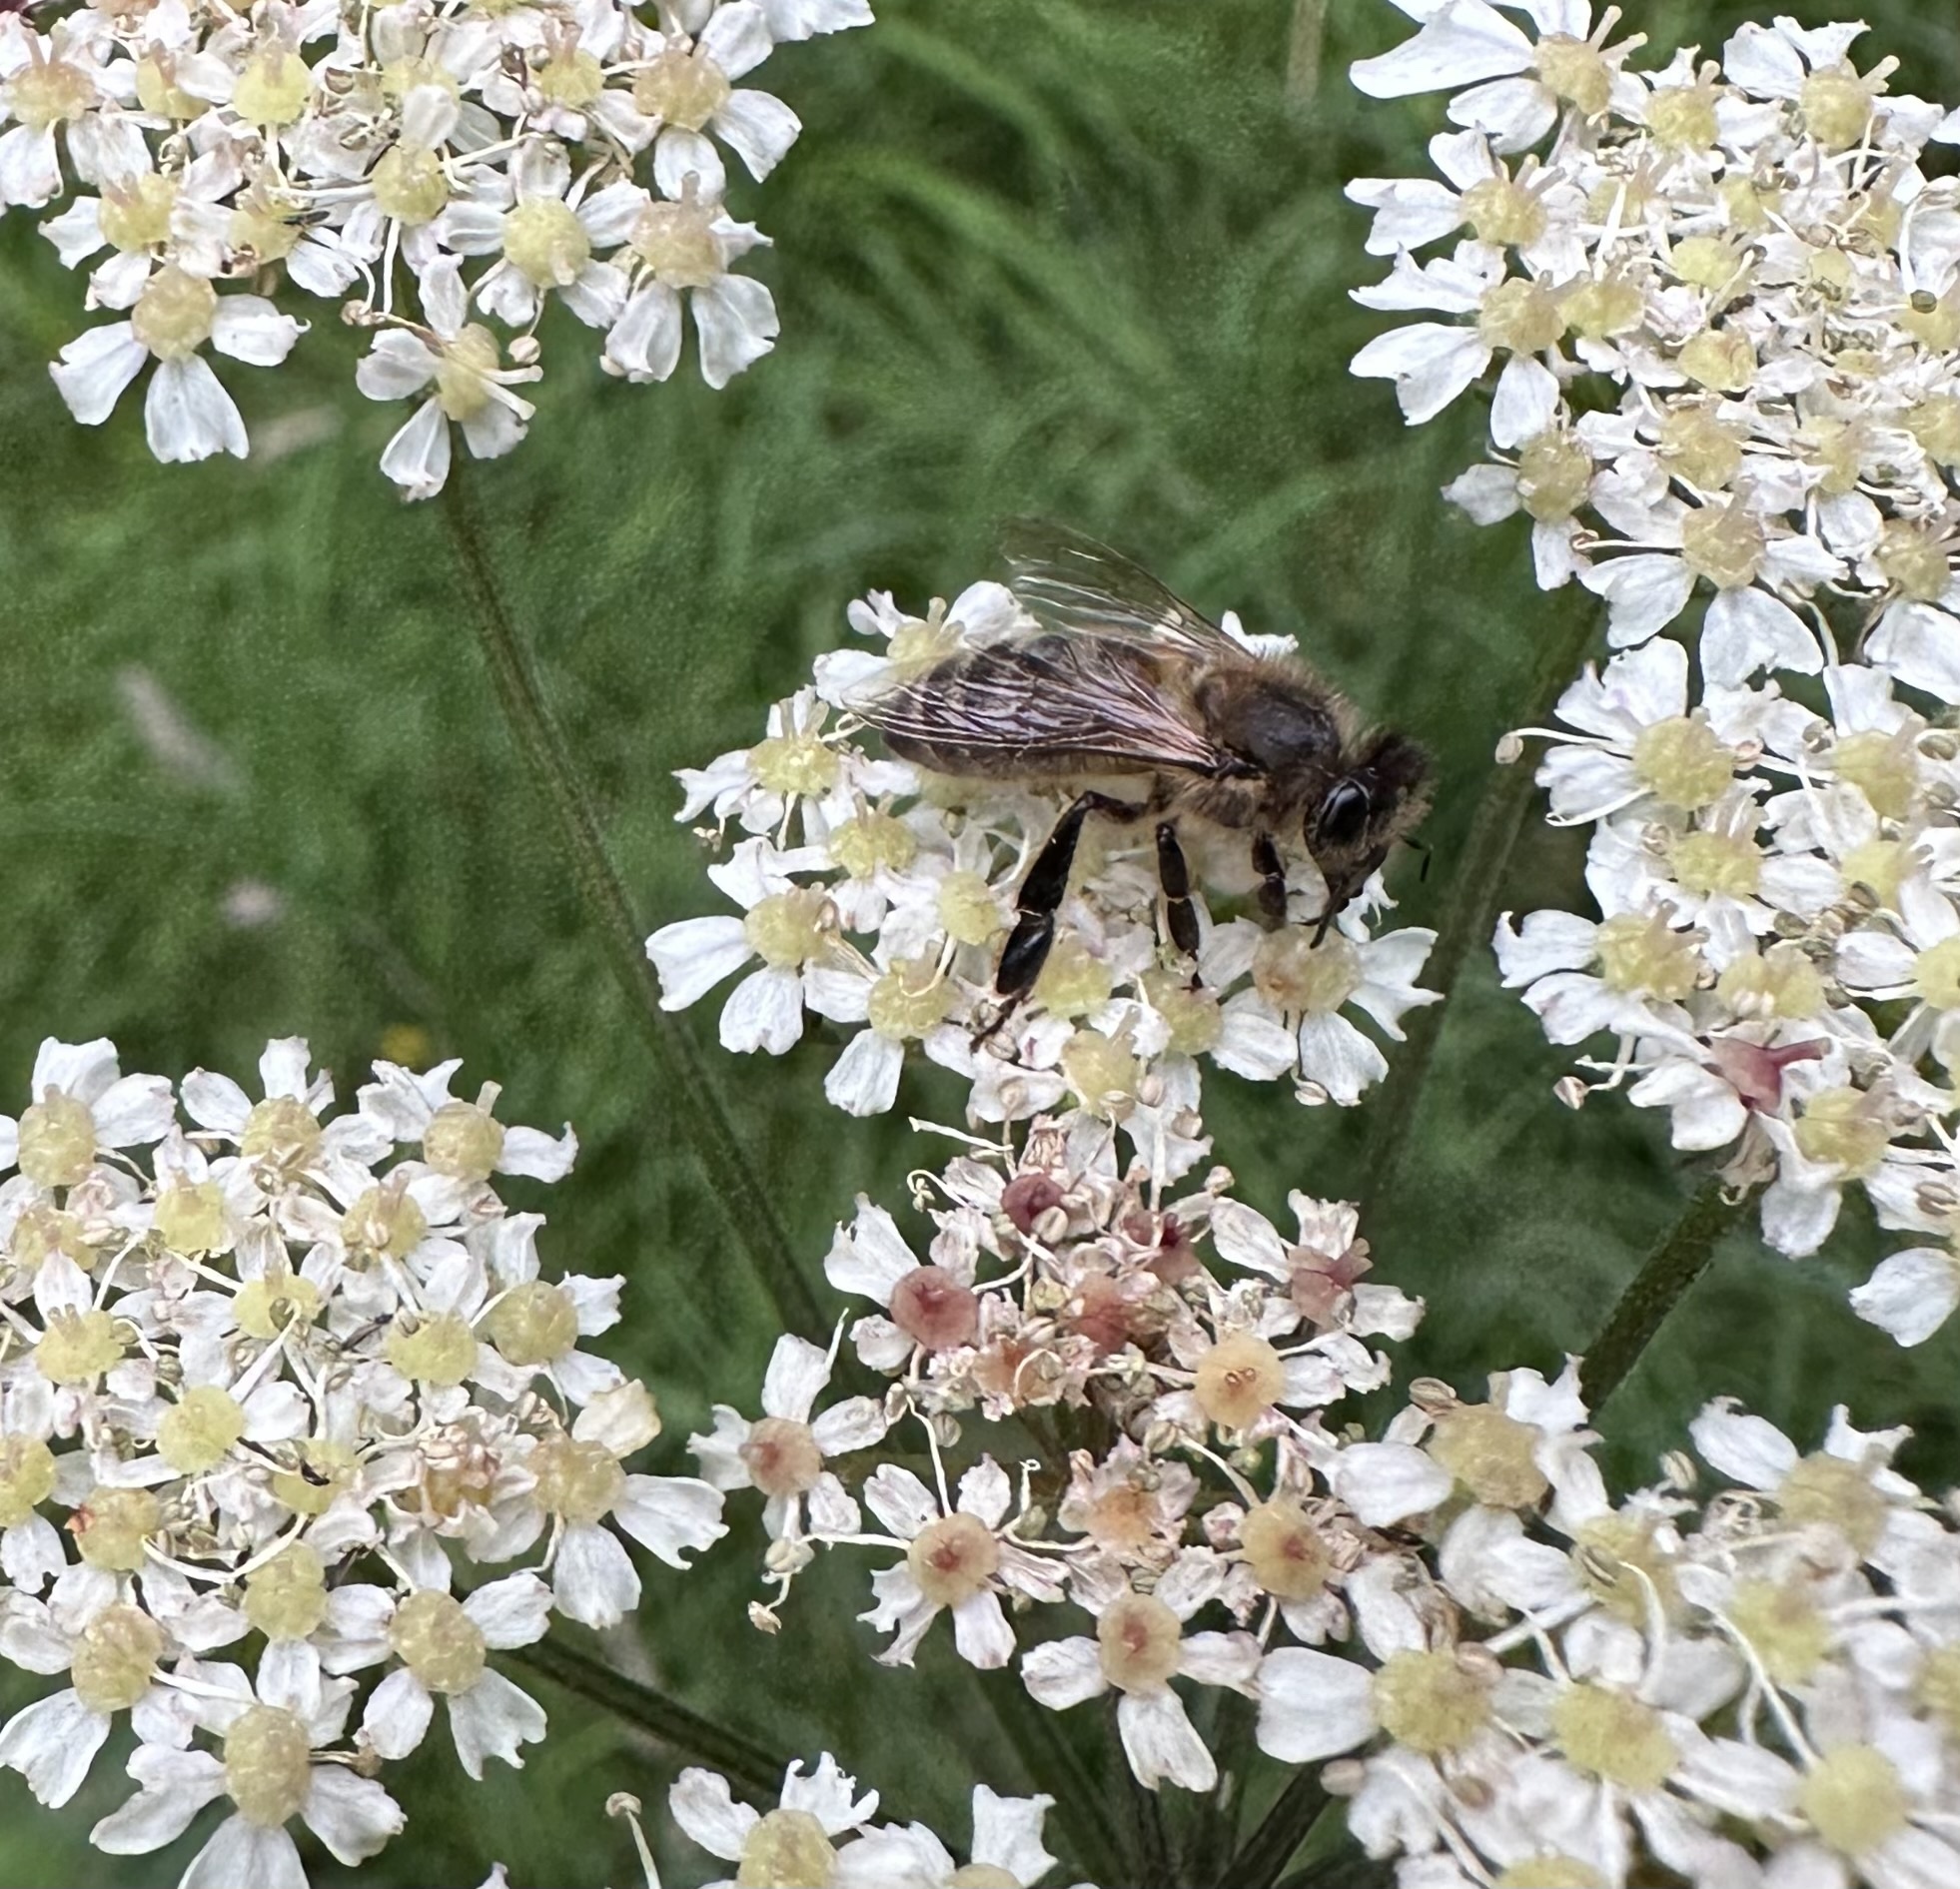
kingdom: Animalia
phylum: Arthropoda
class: Insecta
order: Hymenoptera
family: Apidae
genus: Apis
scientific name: Apis mellifera
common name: Honey bee
